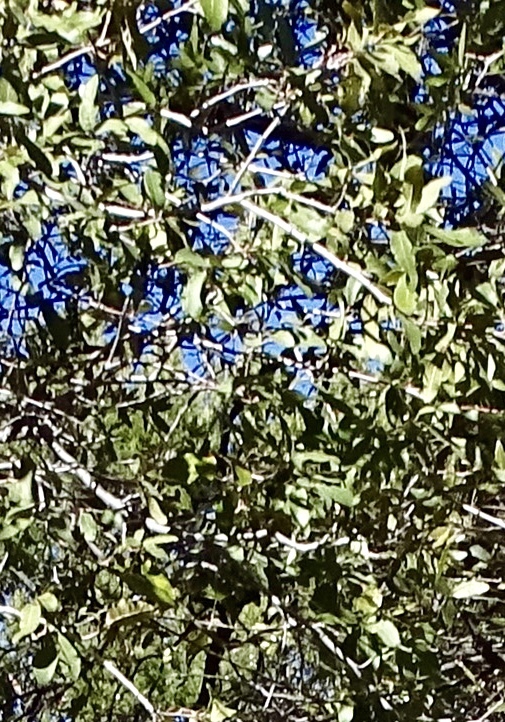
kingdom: Plantae
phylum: Tracheophyta
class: Magnoliopsida
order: Fagales
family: Fagaceae
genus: Quercus
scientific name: Quercus arizonica
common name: Arizona white oak
